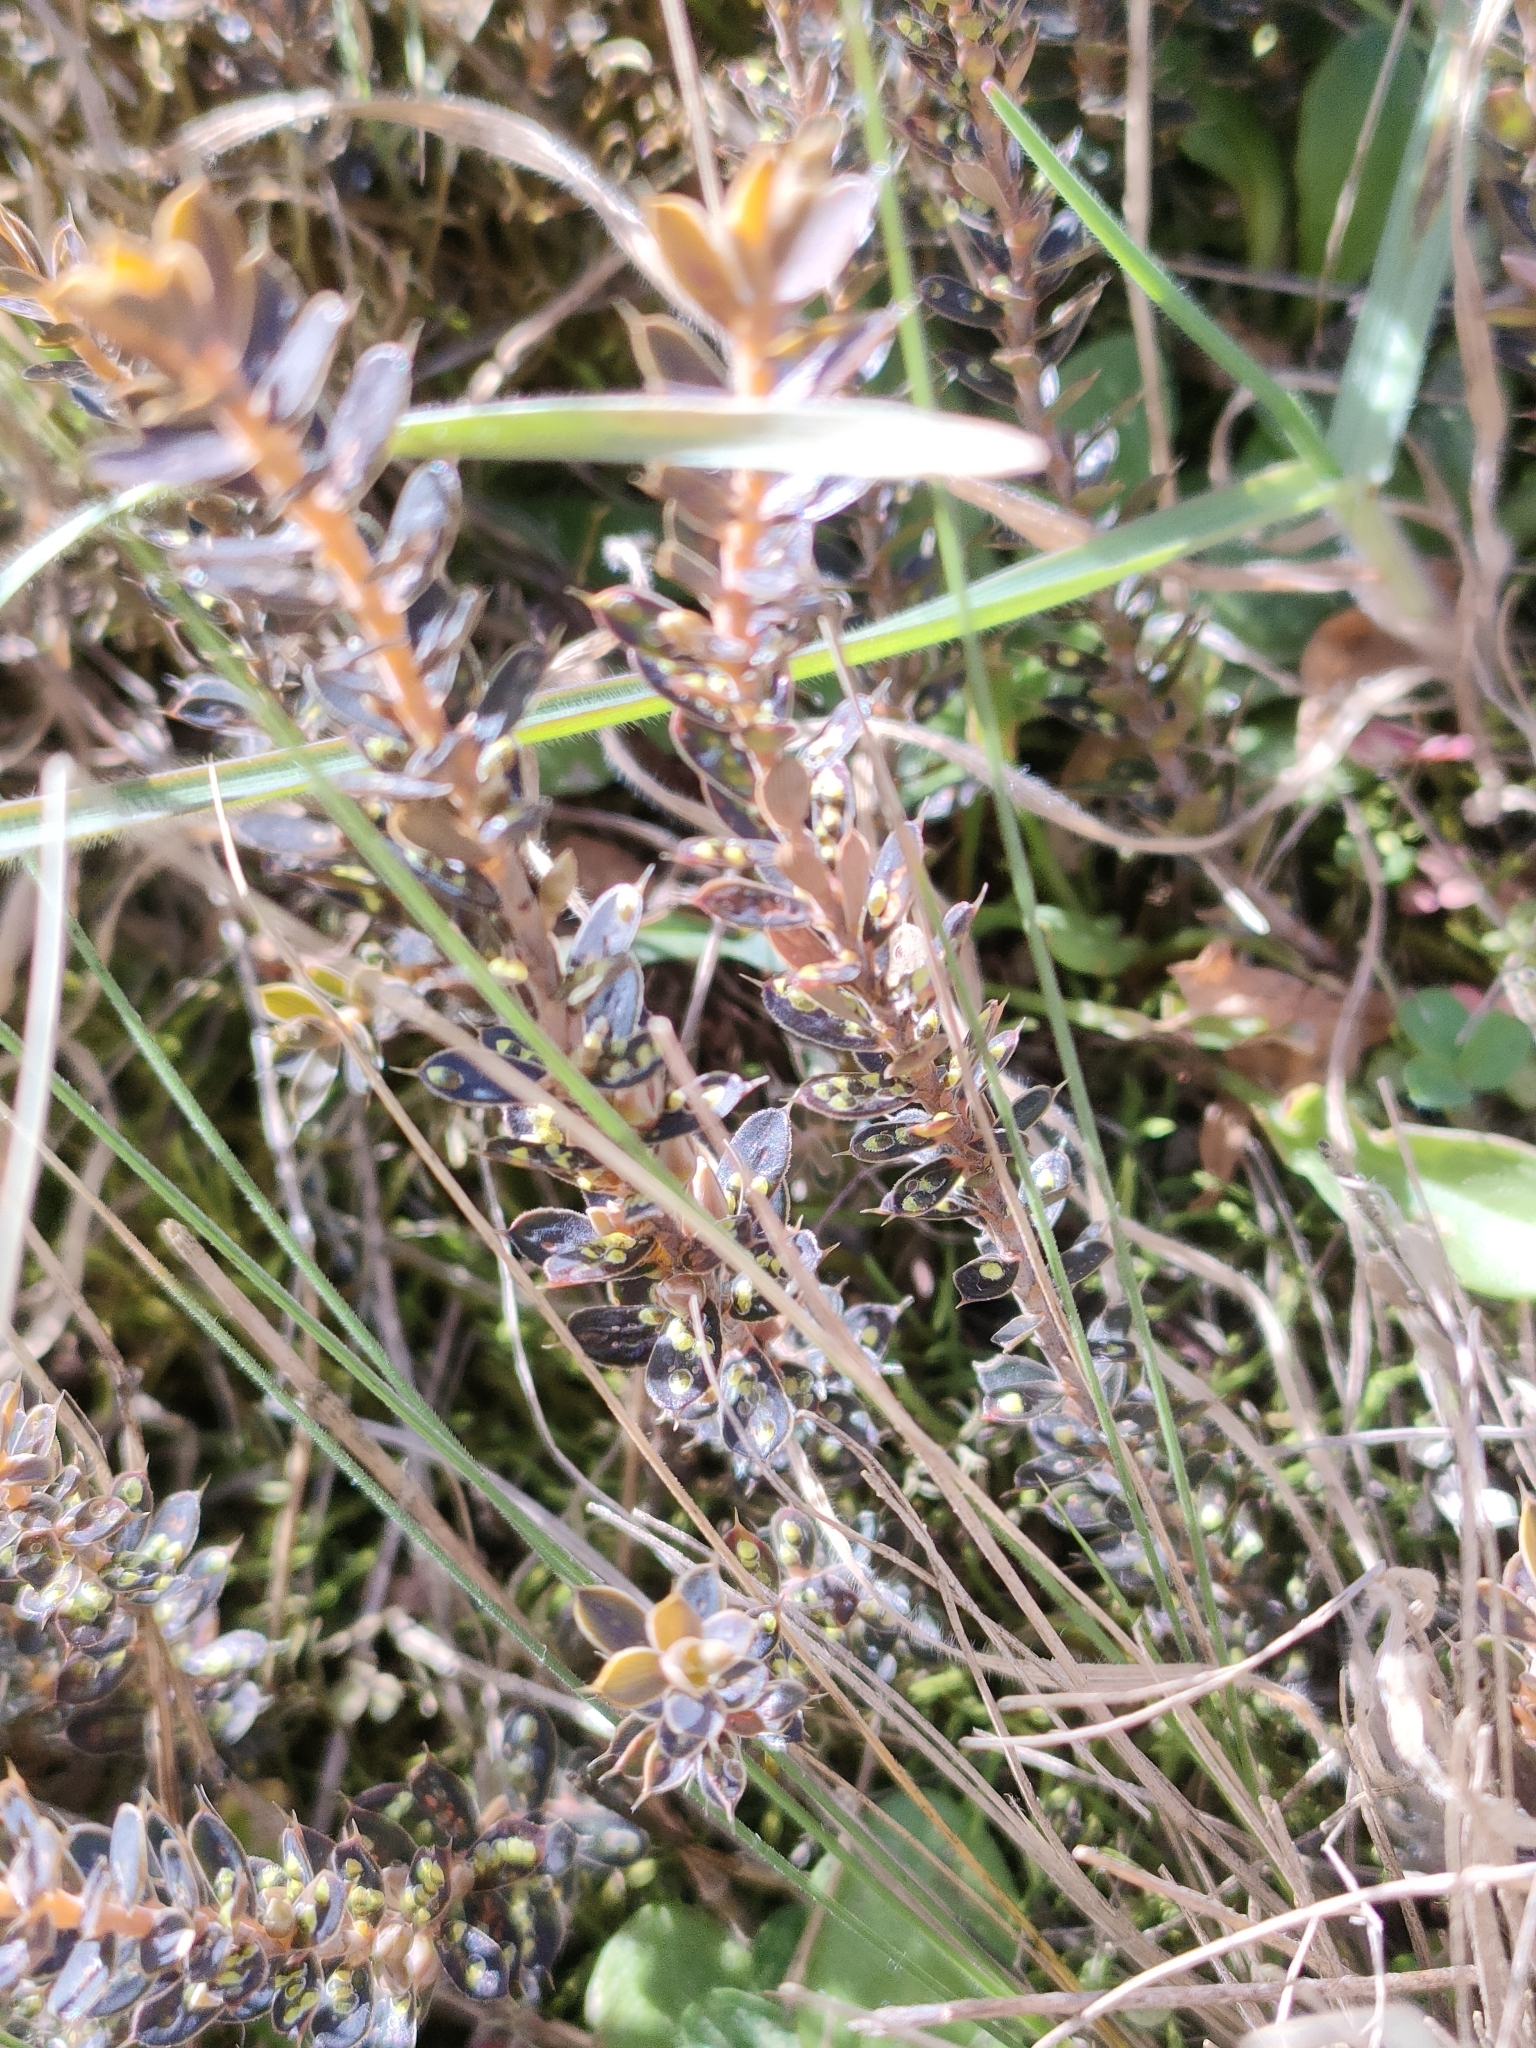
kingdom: Plantae
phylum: Tracheophyta
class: Magnoliopsida
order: Ericales
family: Ericaceae
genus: Styphelia
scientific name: Styphelia nesophila
